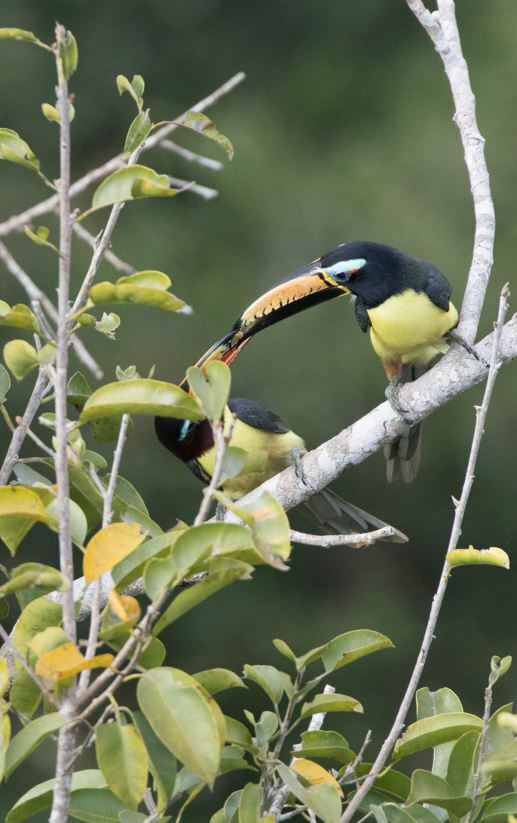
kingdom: Animalia
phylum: Chordata
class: Aves
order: Piciformes
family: Ramphastidae
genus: Pteroglossus
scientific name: Pteroglossus inscriptus
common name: Lettered aracari
